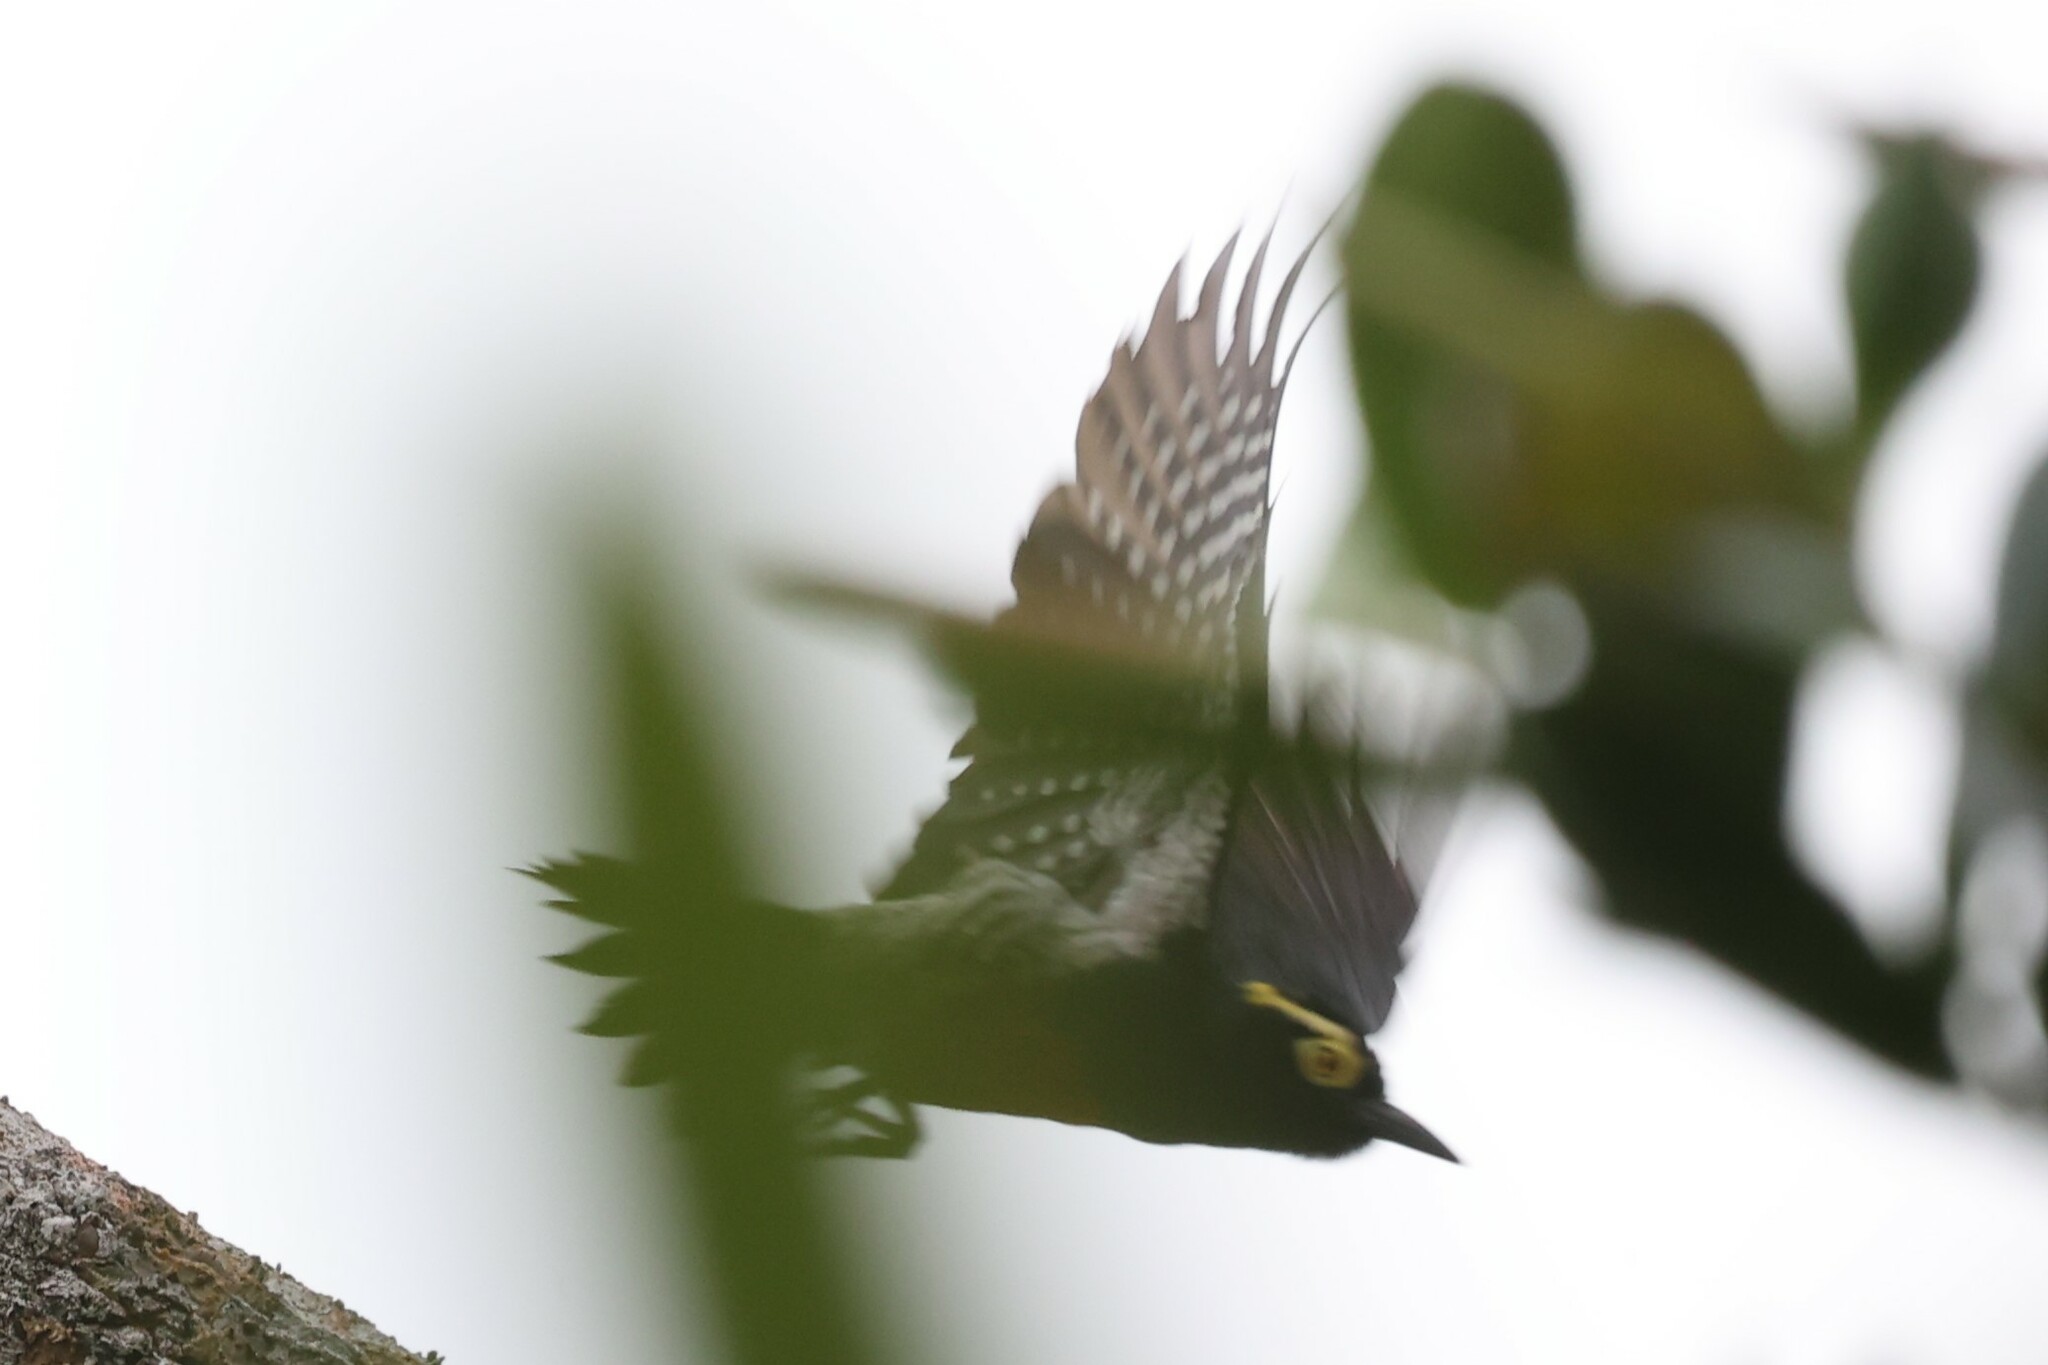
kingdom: Animalia
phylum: Chordata
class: Aves
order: Piciformes
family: Picidae
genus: Melanerpes
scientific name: Melanerpes cruentatus
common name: Yellow-tufted woodpecker
